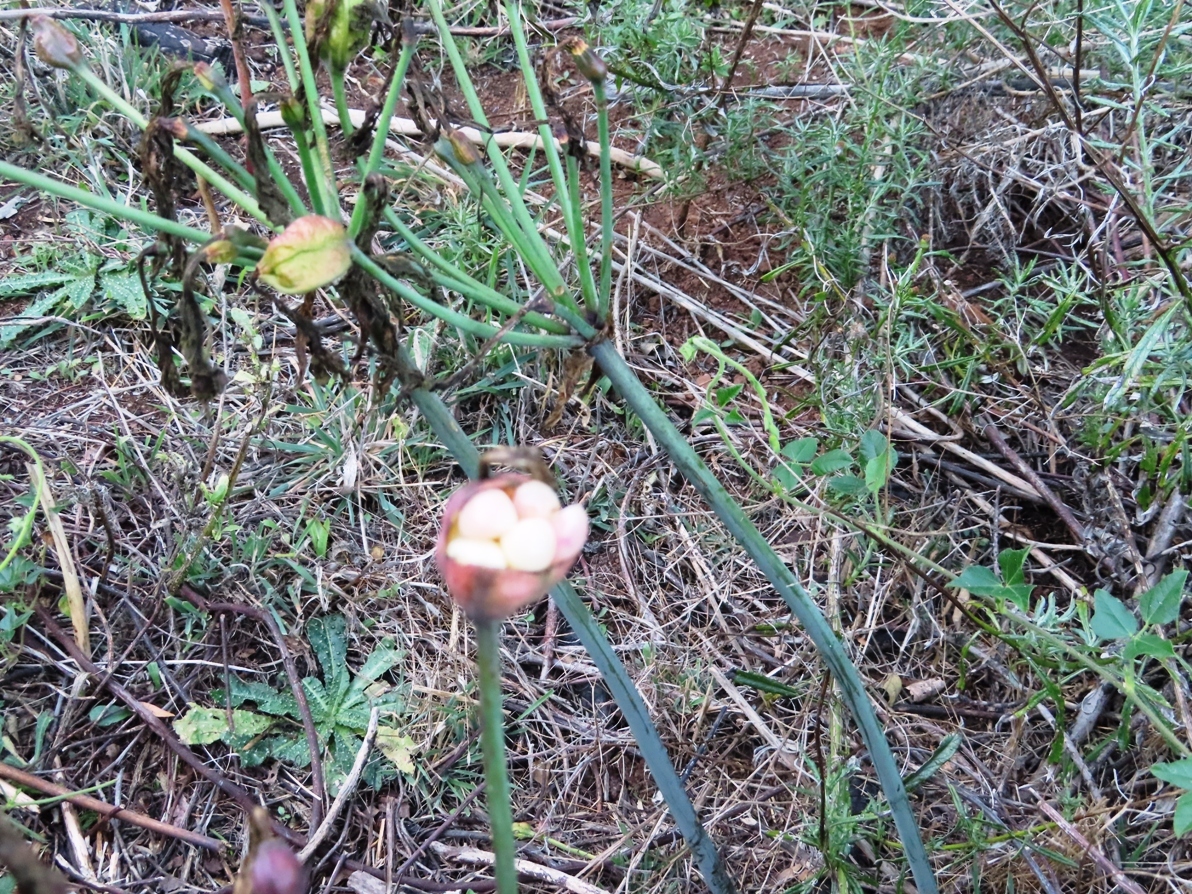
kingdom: Plantae
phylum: Tracheophyta
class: Liliopsida
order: Asparagales
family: Amaryllidaceae
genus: Amaryllis
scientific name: Amaryllis belladonna
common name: Jersey lily
